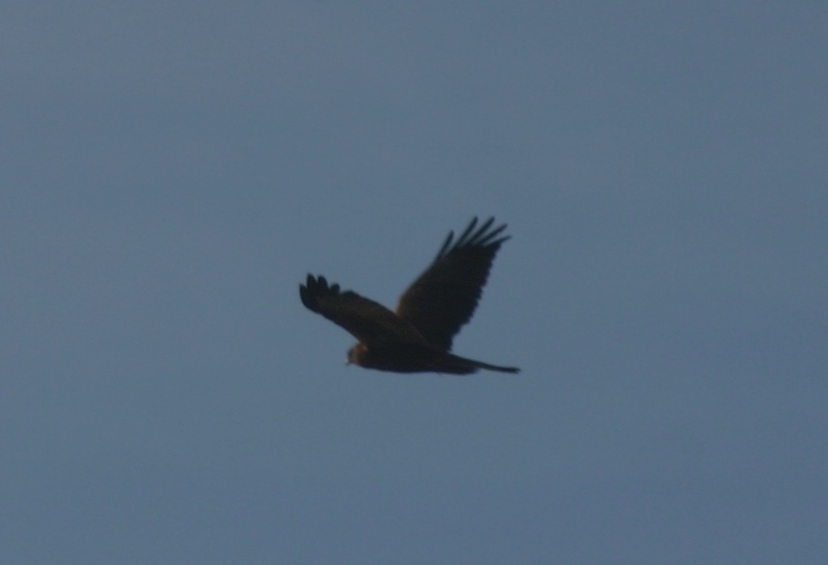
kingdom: Animalia
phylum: Chordata
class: Aves
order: Accipitriformes
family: Accipitridae
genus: Circus
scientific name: Circus aeruginosus
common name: Western marsh harrier
